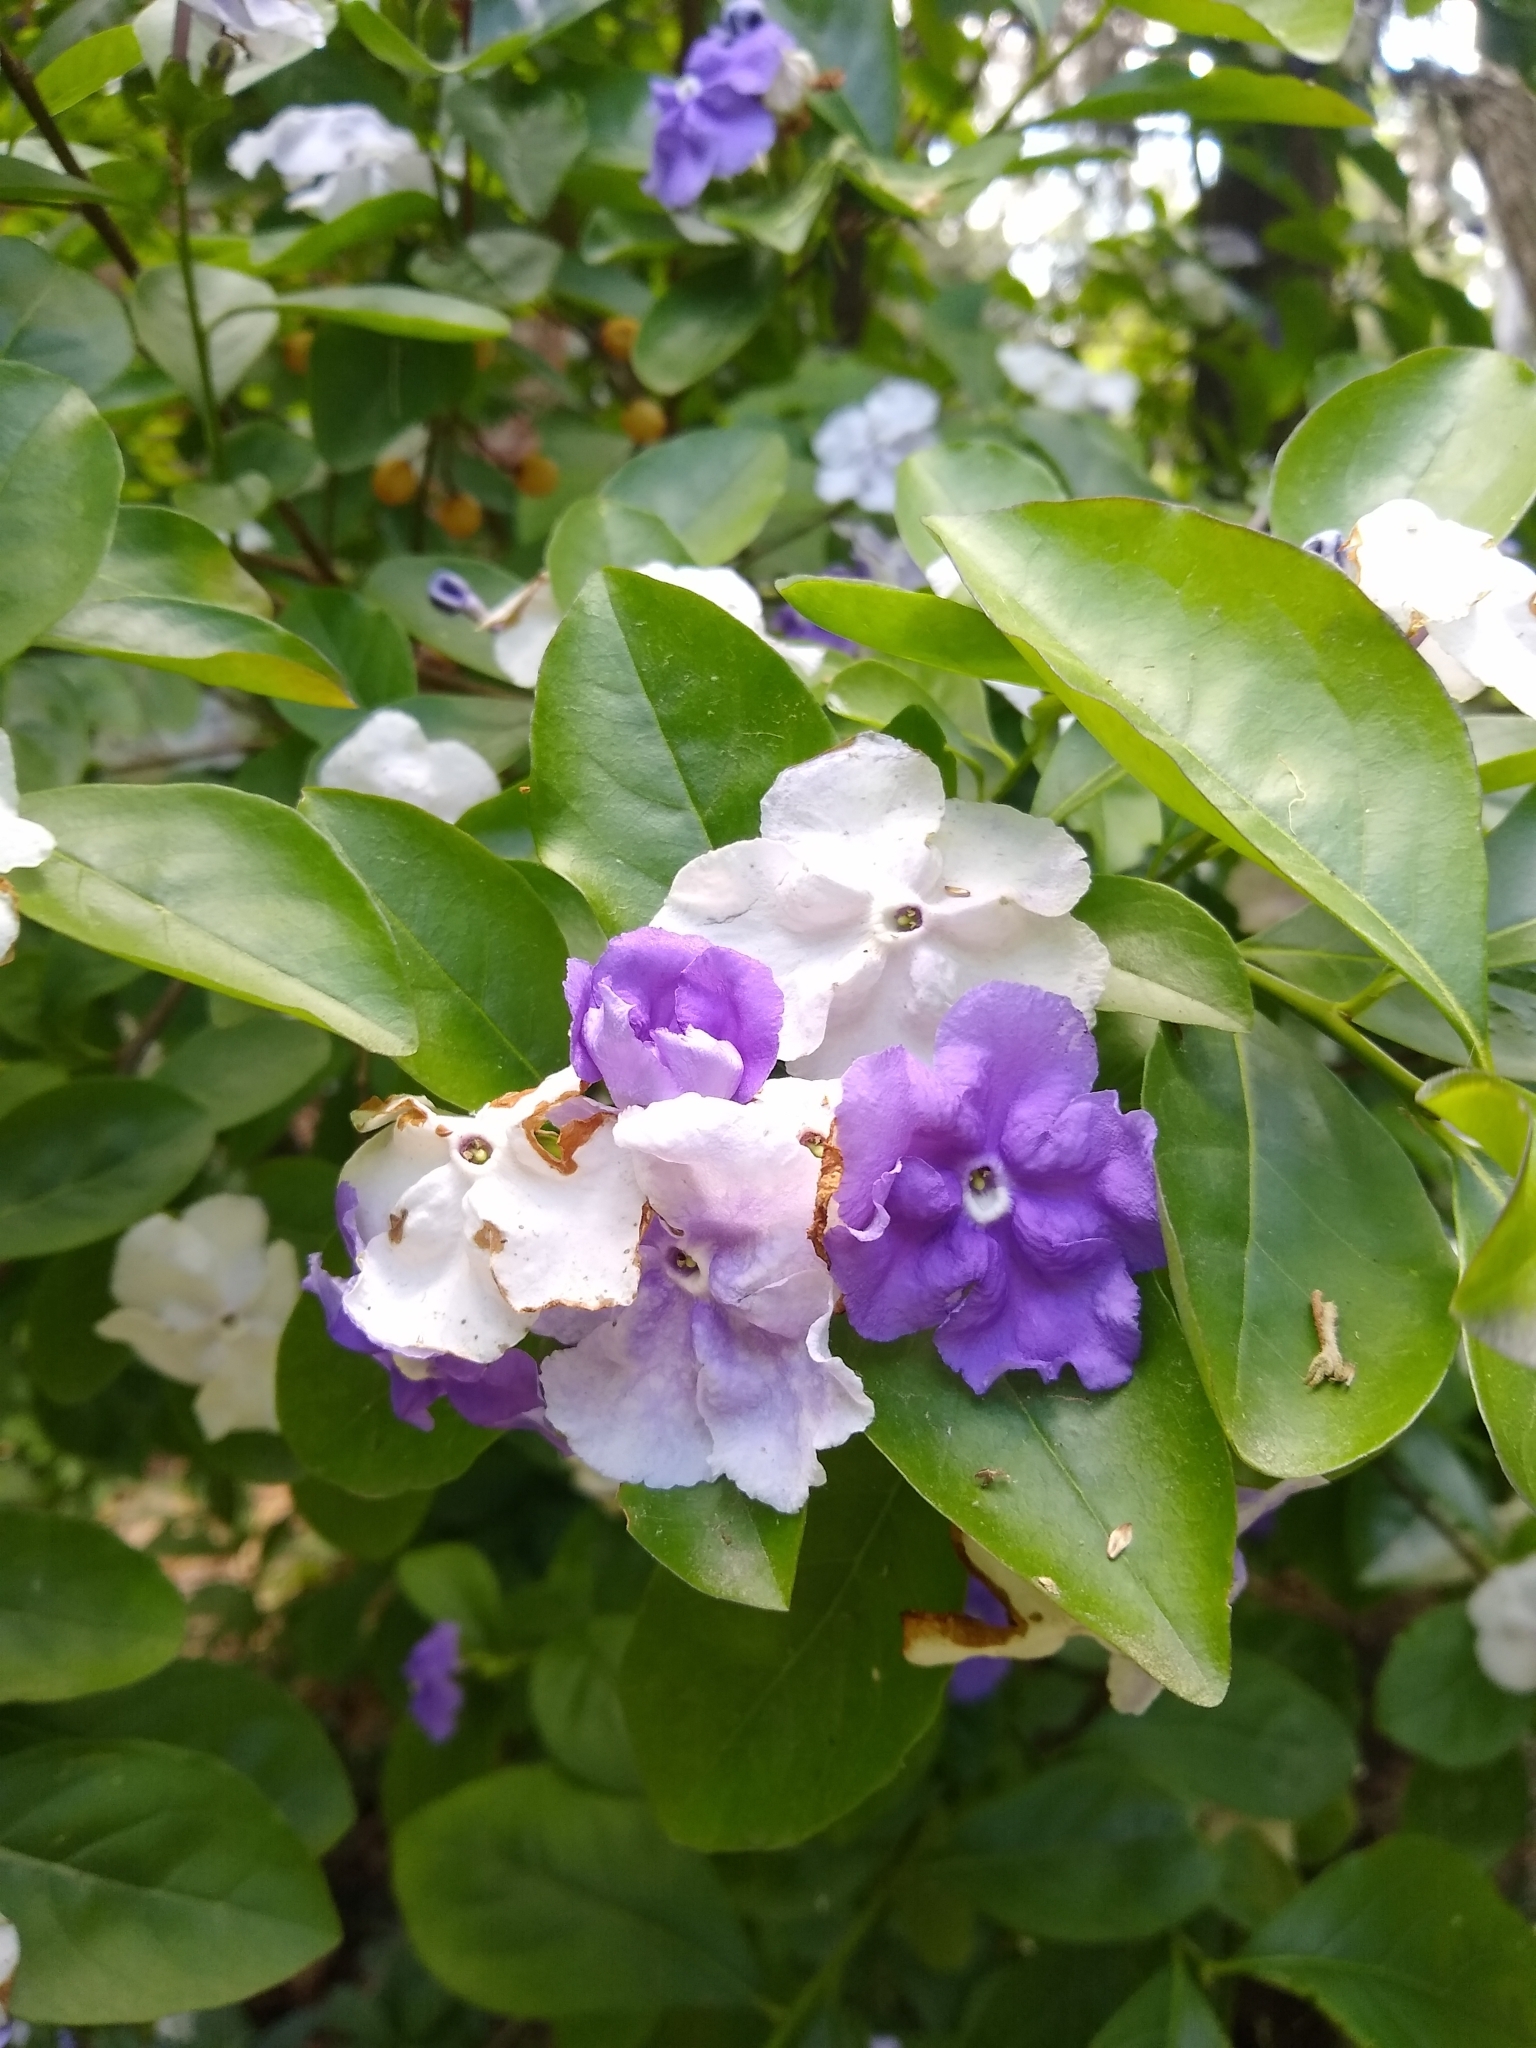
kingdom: Plantae
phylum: Tracheophyta
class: Magnoliopsida
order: Solanales
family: Solanaceae
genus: Brunfelsia
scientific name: Brunfelsia australis
